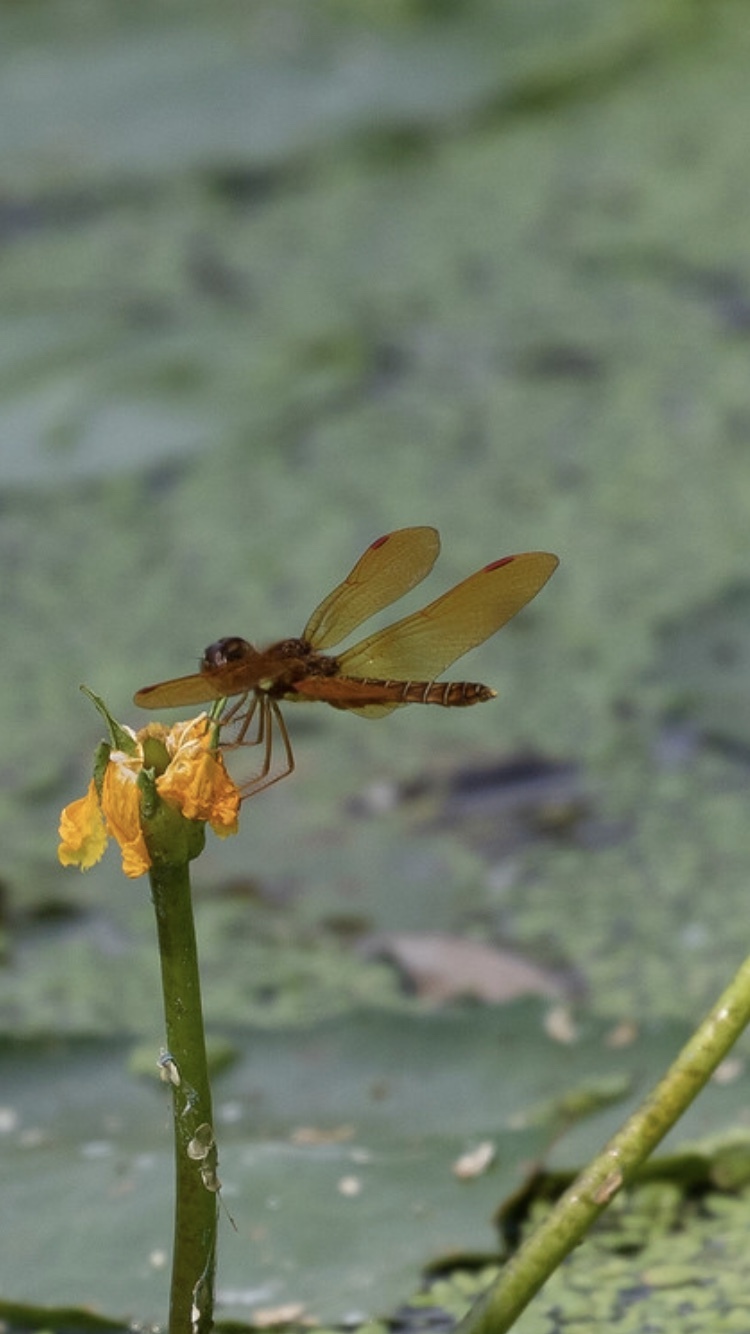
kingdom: Animalia
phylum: Arthropoda
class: Insecta
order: Odonata
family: Libellulidae
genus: Perithemis
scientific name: Perithemis tenera
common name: Eastern amberwing
